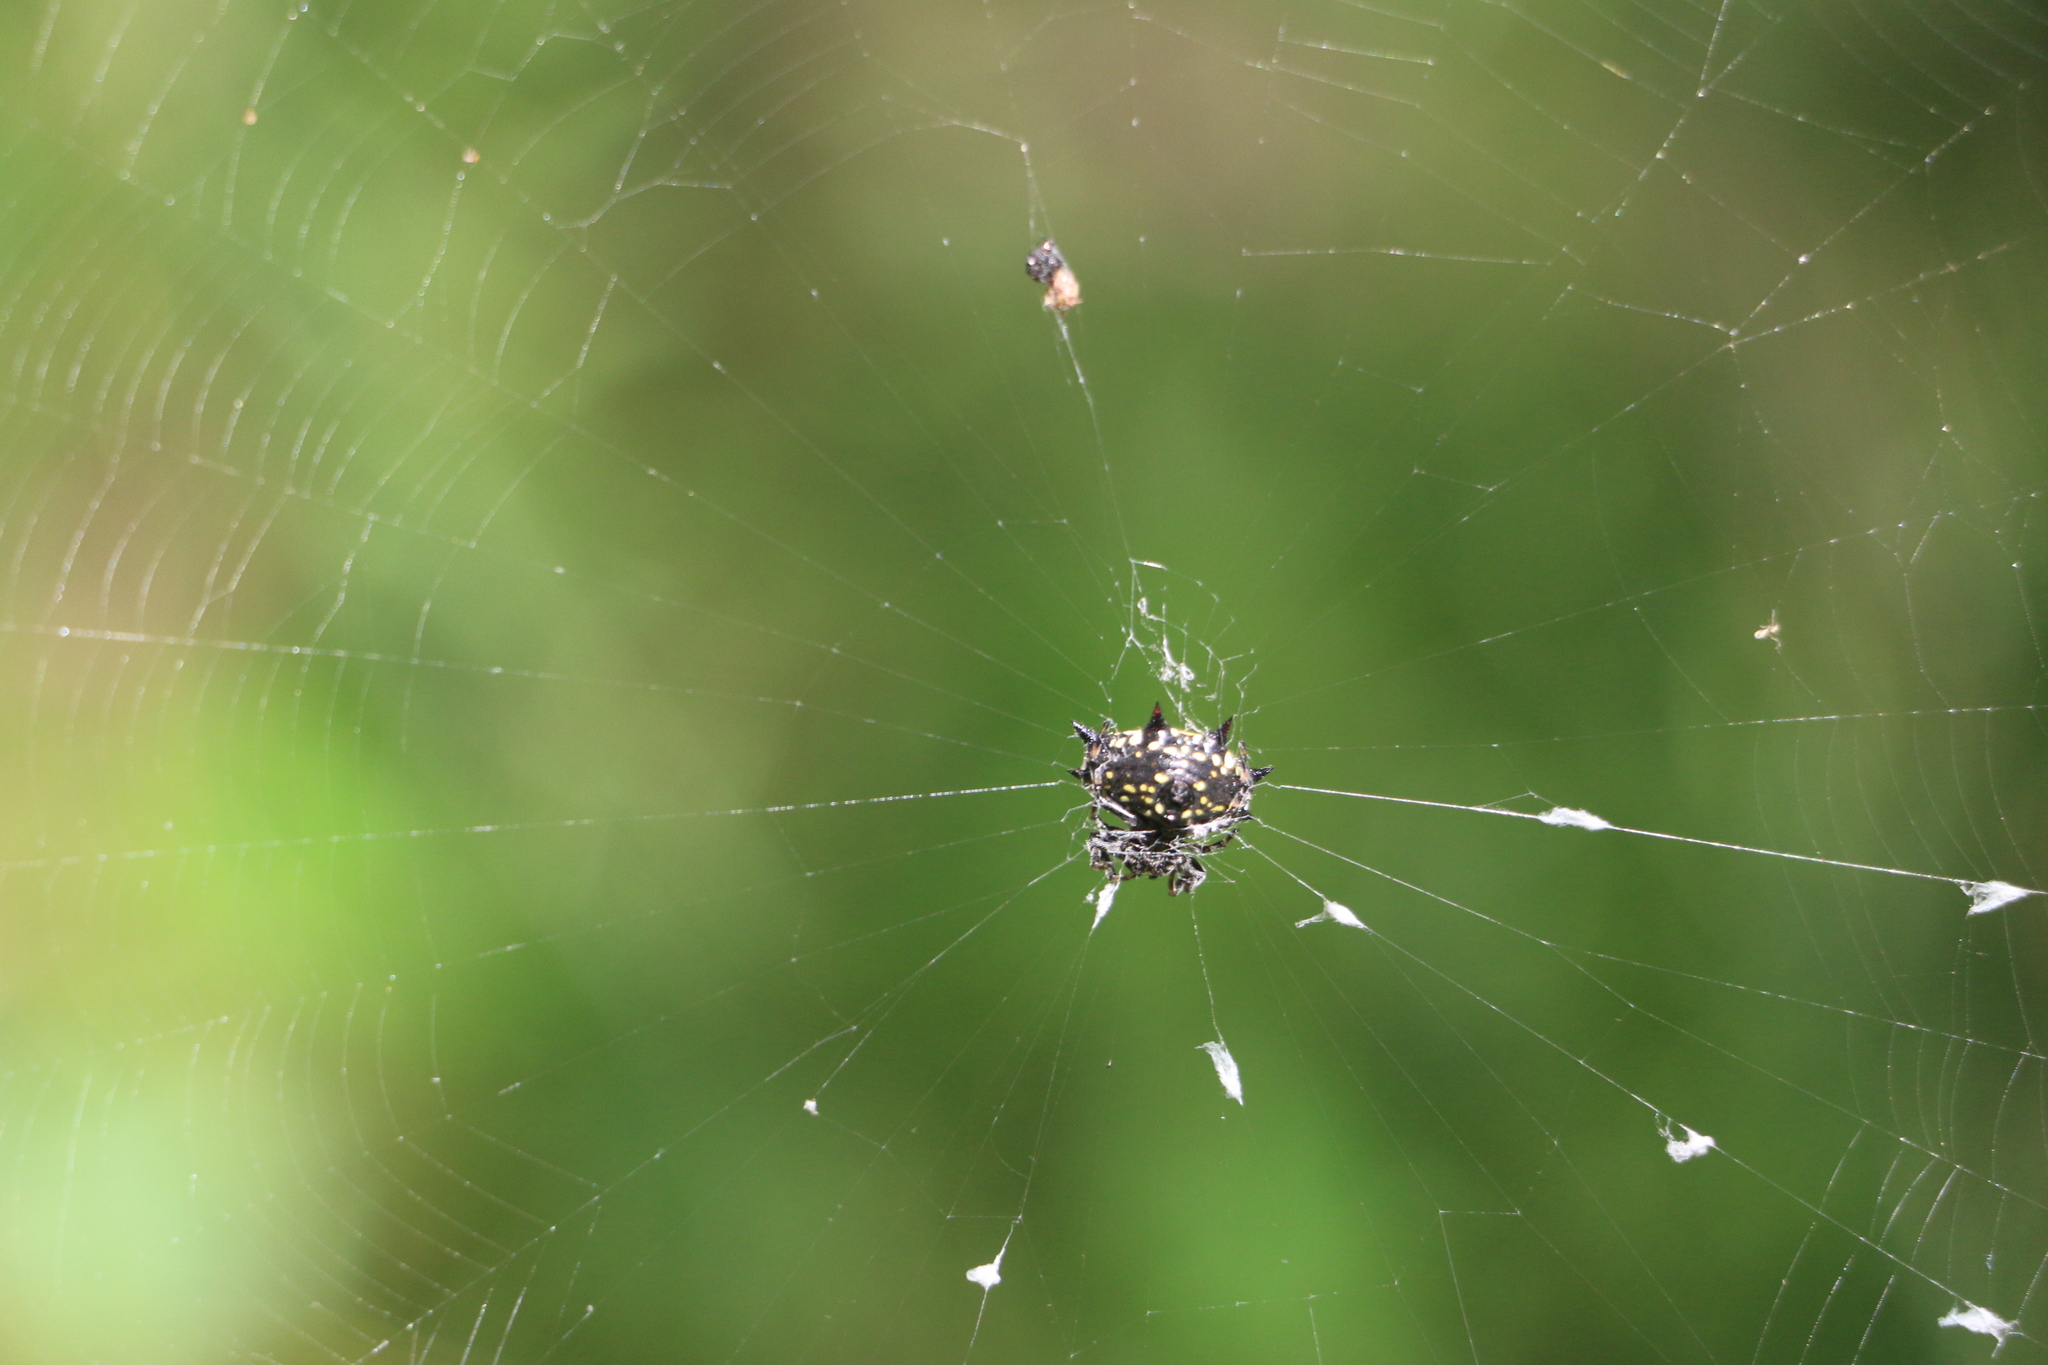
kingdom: Animalia
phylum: Arthropoda
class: Arachnida
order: Araneae
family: Araneidae
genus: Gasteracantha
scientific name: Gasteracantha cancriformis
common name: Orb weavers
